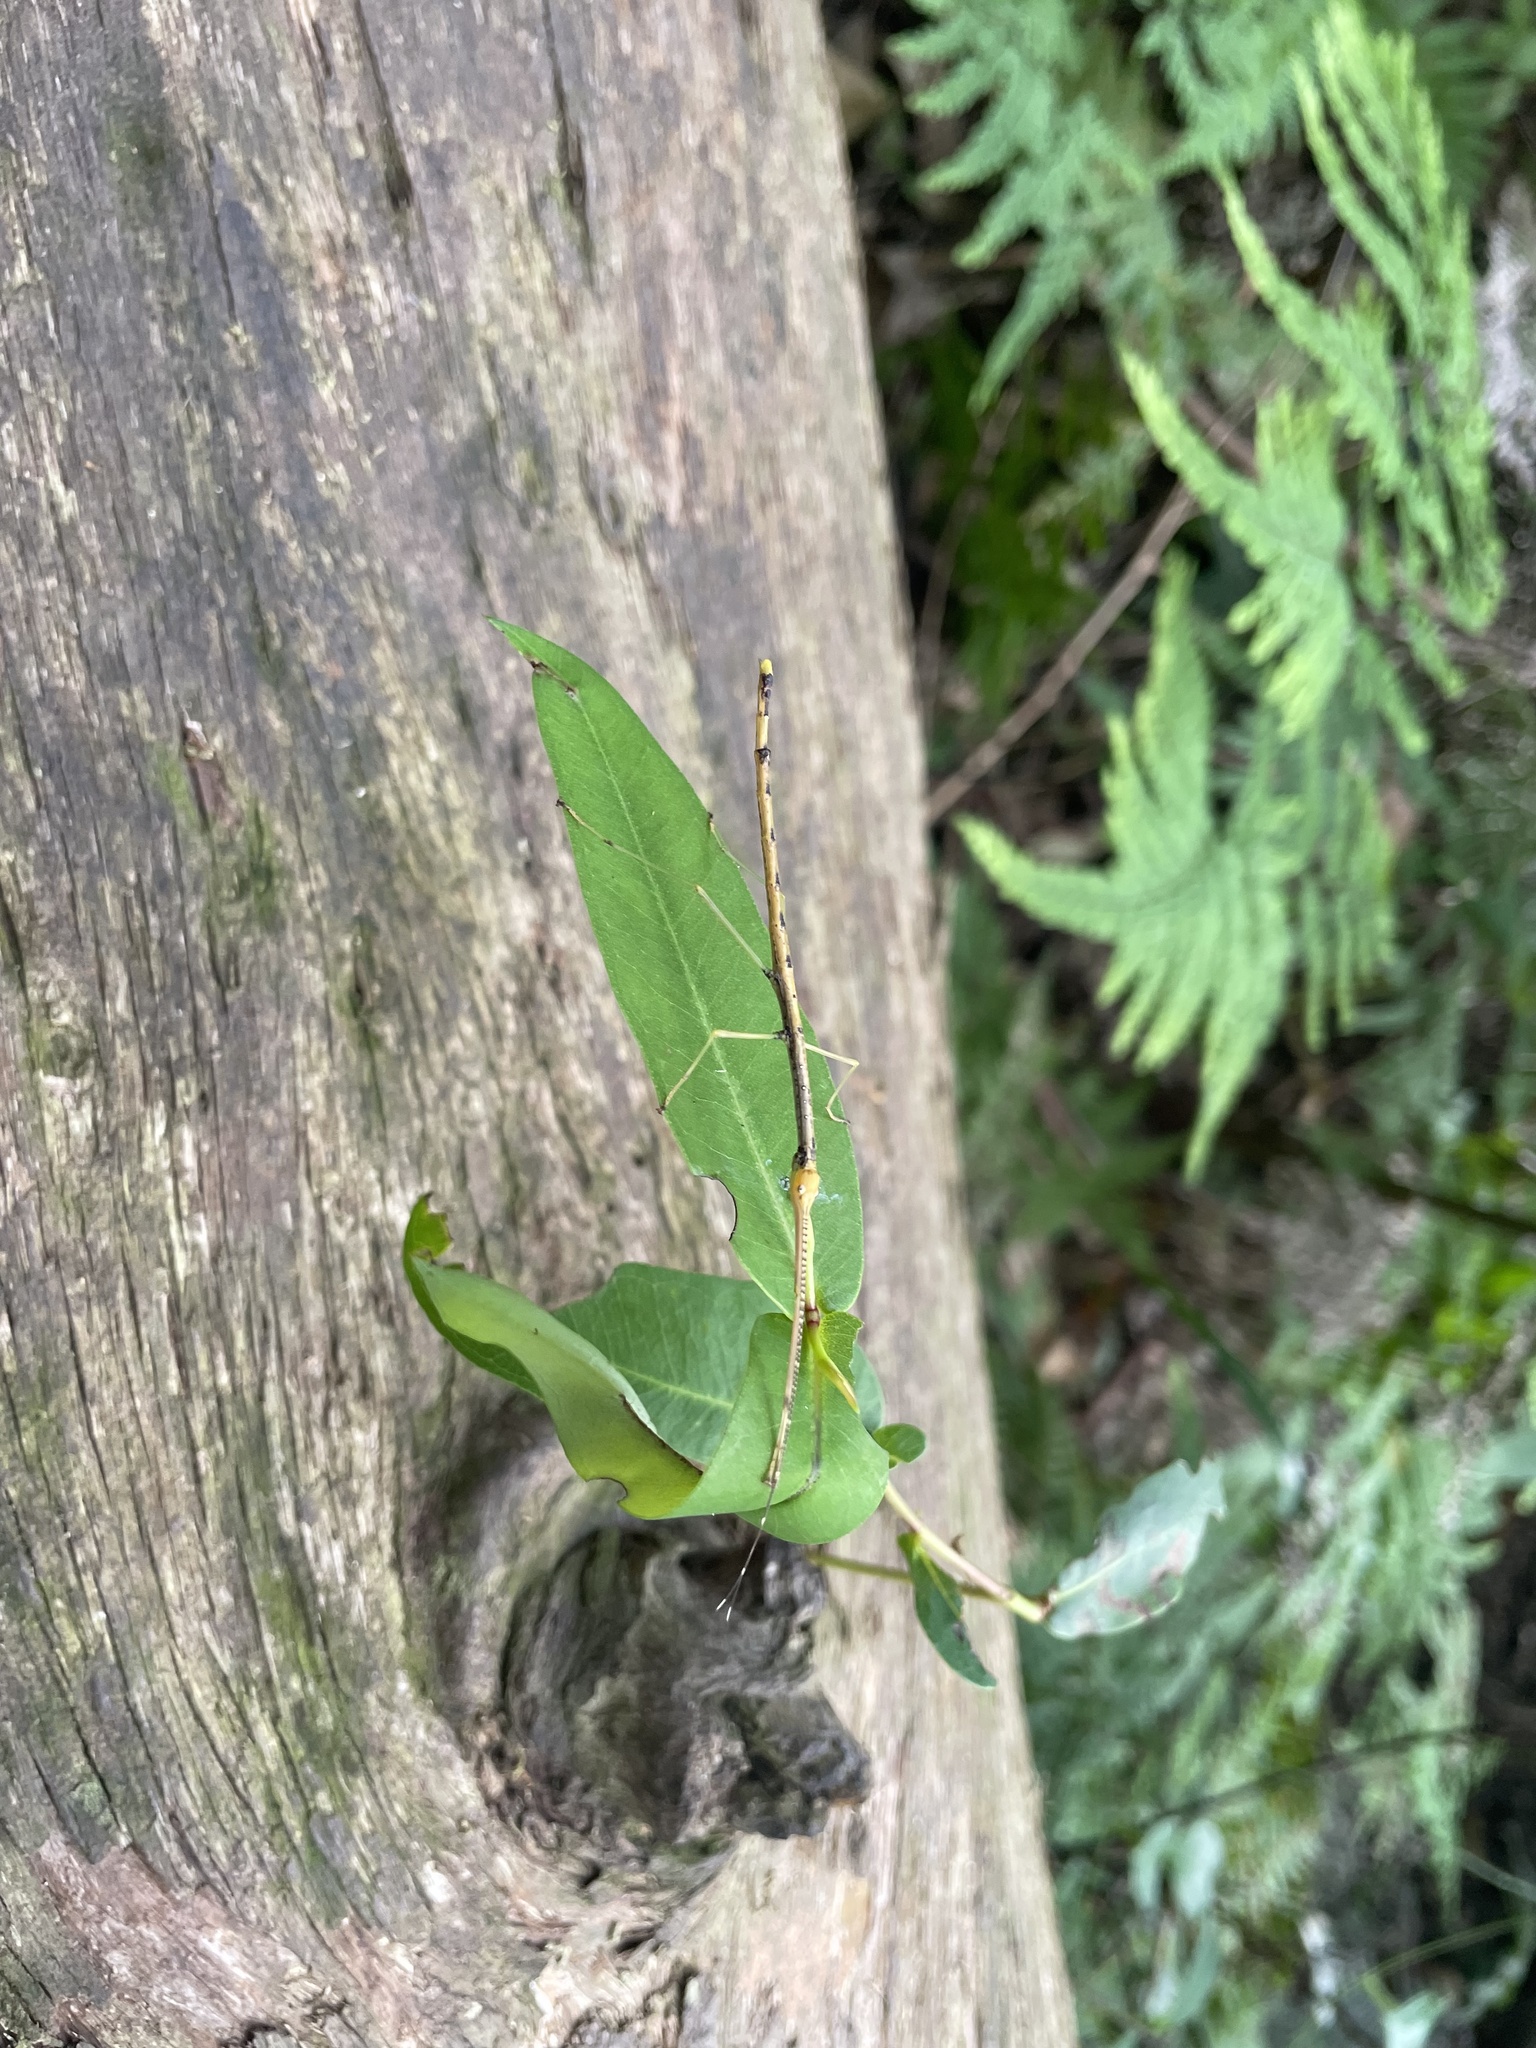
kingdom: Animalia
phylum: Arthropoda
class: Insecta
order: Phasmida
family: Lonchodidae
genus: Candovia
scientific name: Candovia strumosa
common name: Richmond river stick-insect
